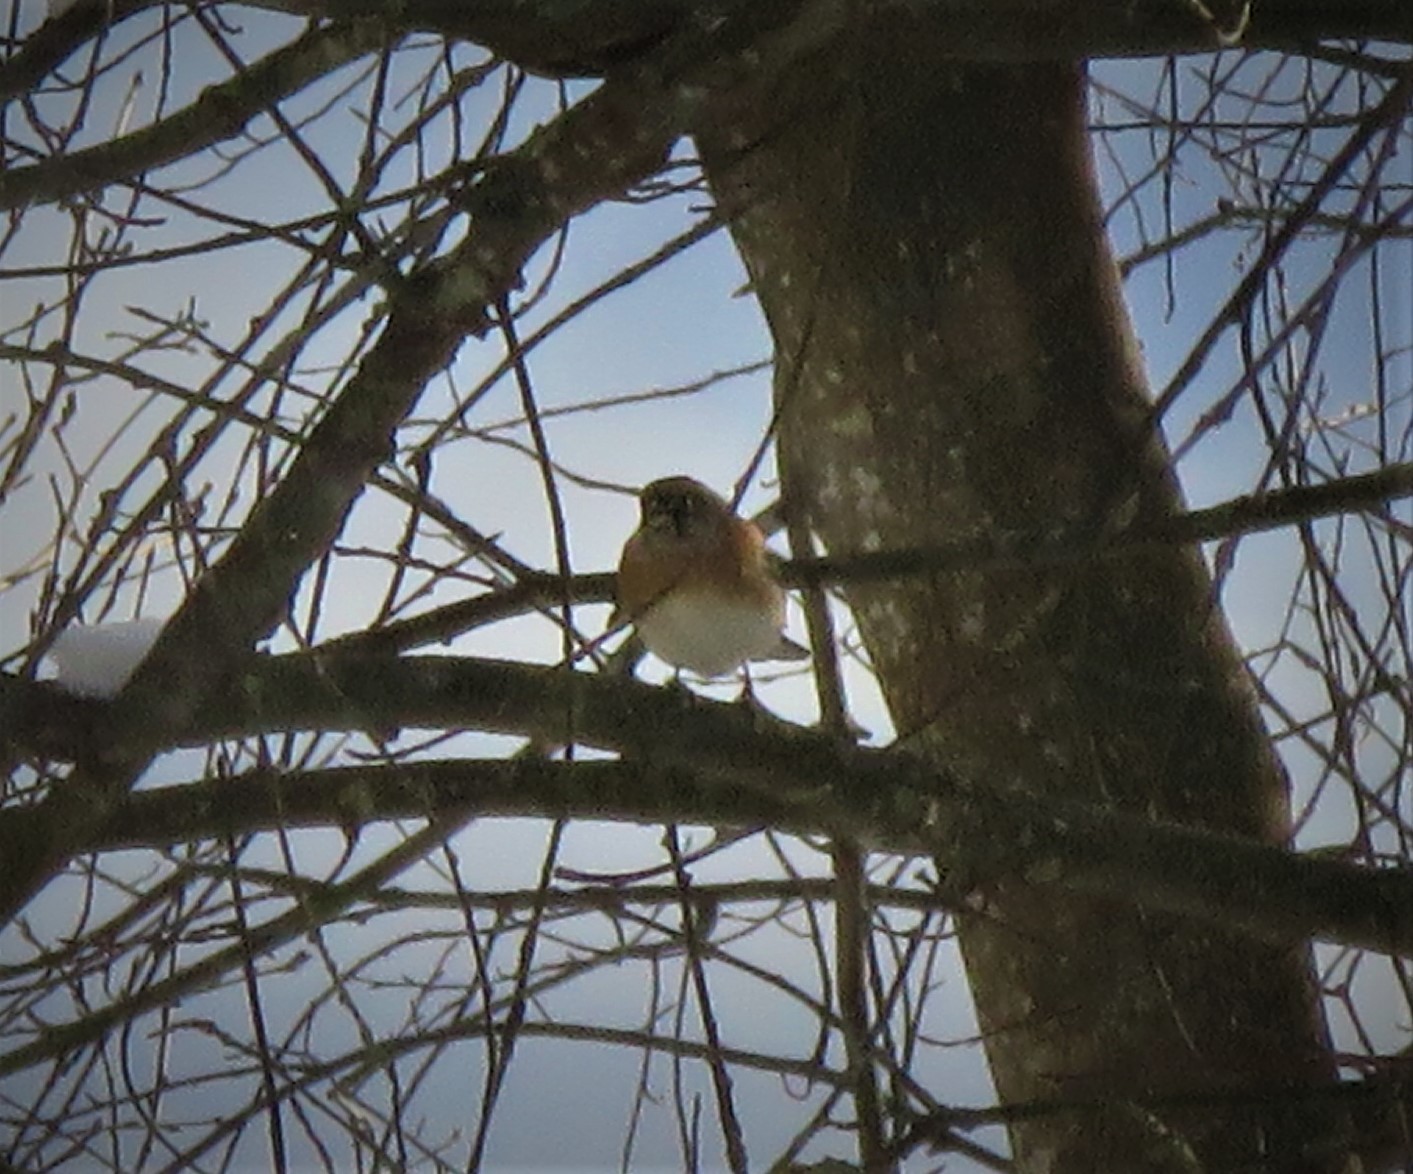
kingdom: Animalia
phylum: Chordata
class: Aves
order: Passeriformes
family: Fringillidae
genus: Fringilla
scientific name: Fringilla montifringilla
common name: Brambling
